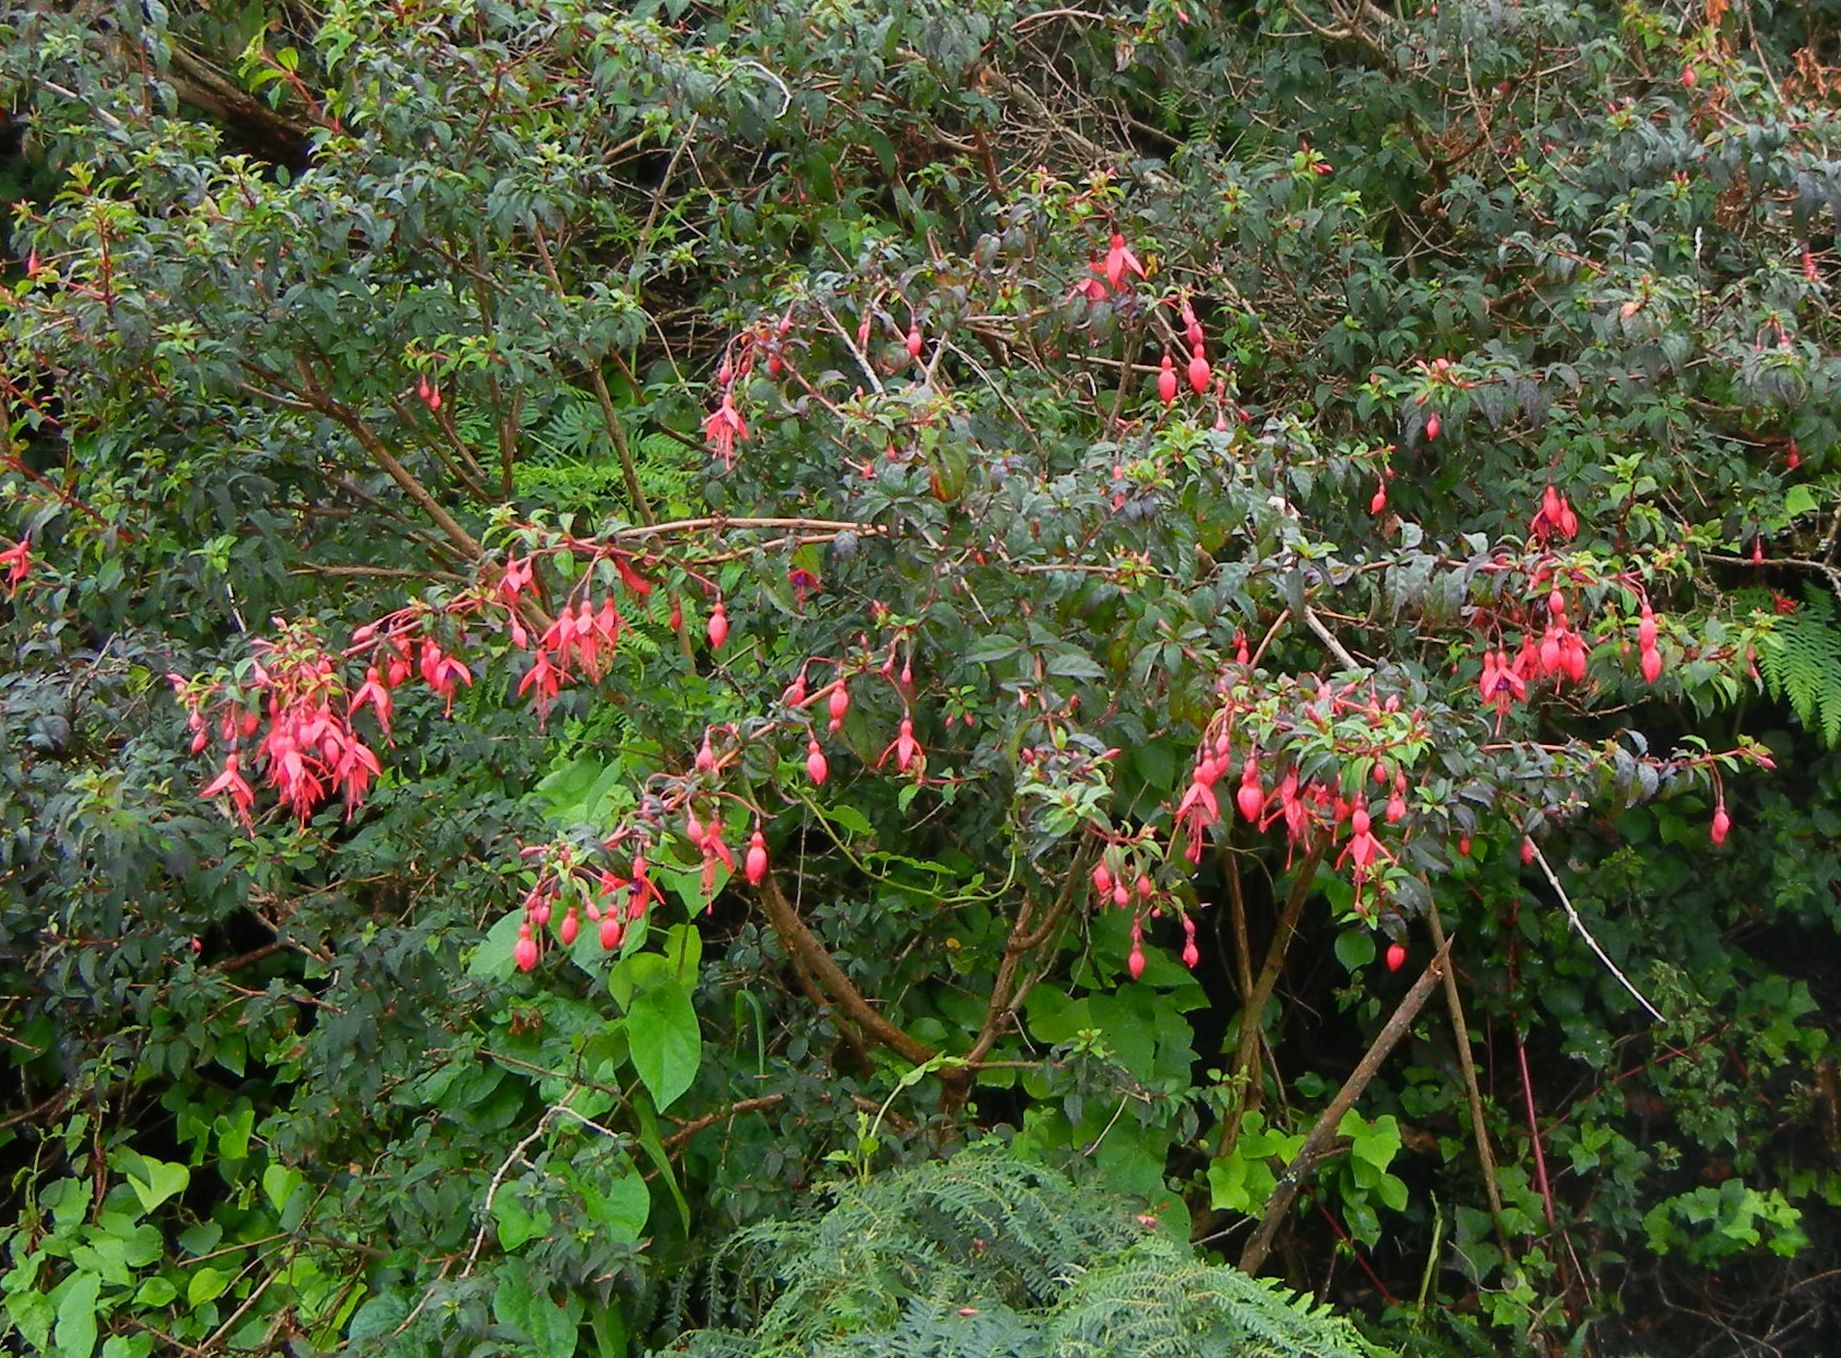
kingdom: Plantae
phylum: Tracheophyta
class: Magnoliopsida
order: Myrtales
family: Onagraceae
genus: Fuchsia
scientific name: Fuchsia magellanica
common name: Hardy fuchsia
